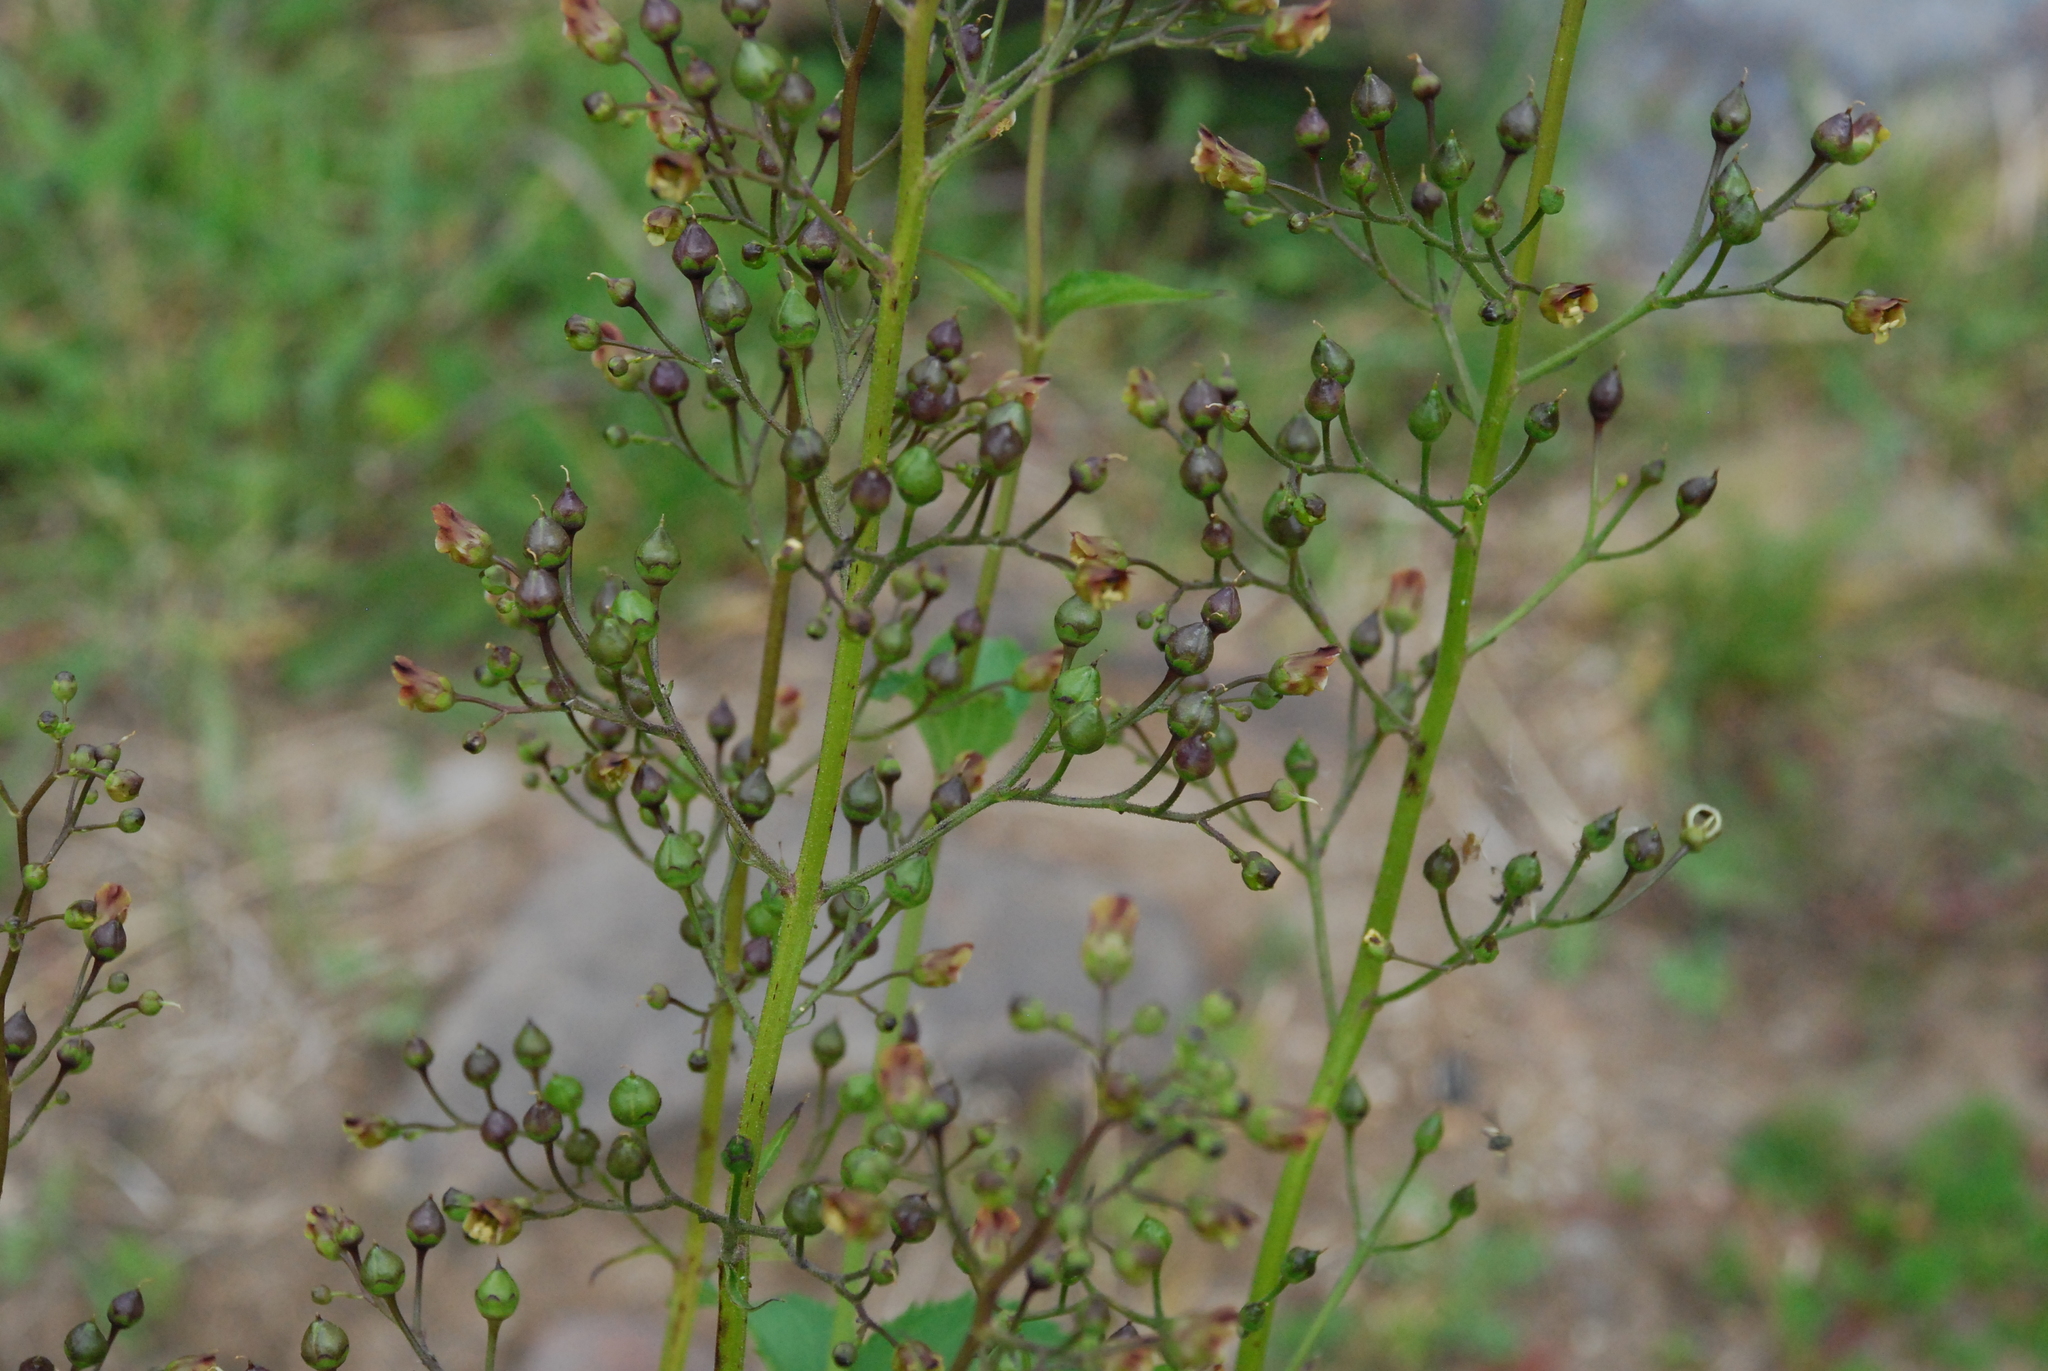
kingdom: Plantae
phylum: Tracheophyta
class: Magnoliopsida
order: Lamiales
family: Scrophulariaceae
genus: Scrophularia
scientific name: Scrophularia nodosa
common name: Common figwort
